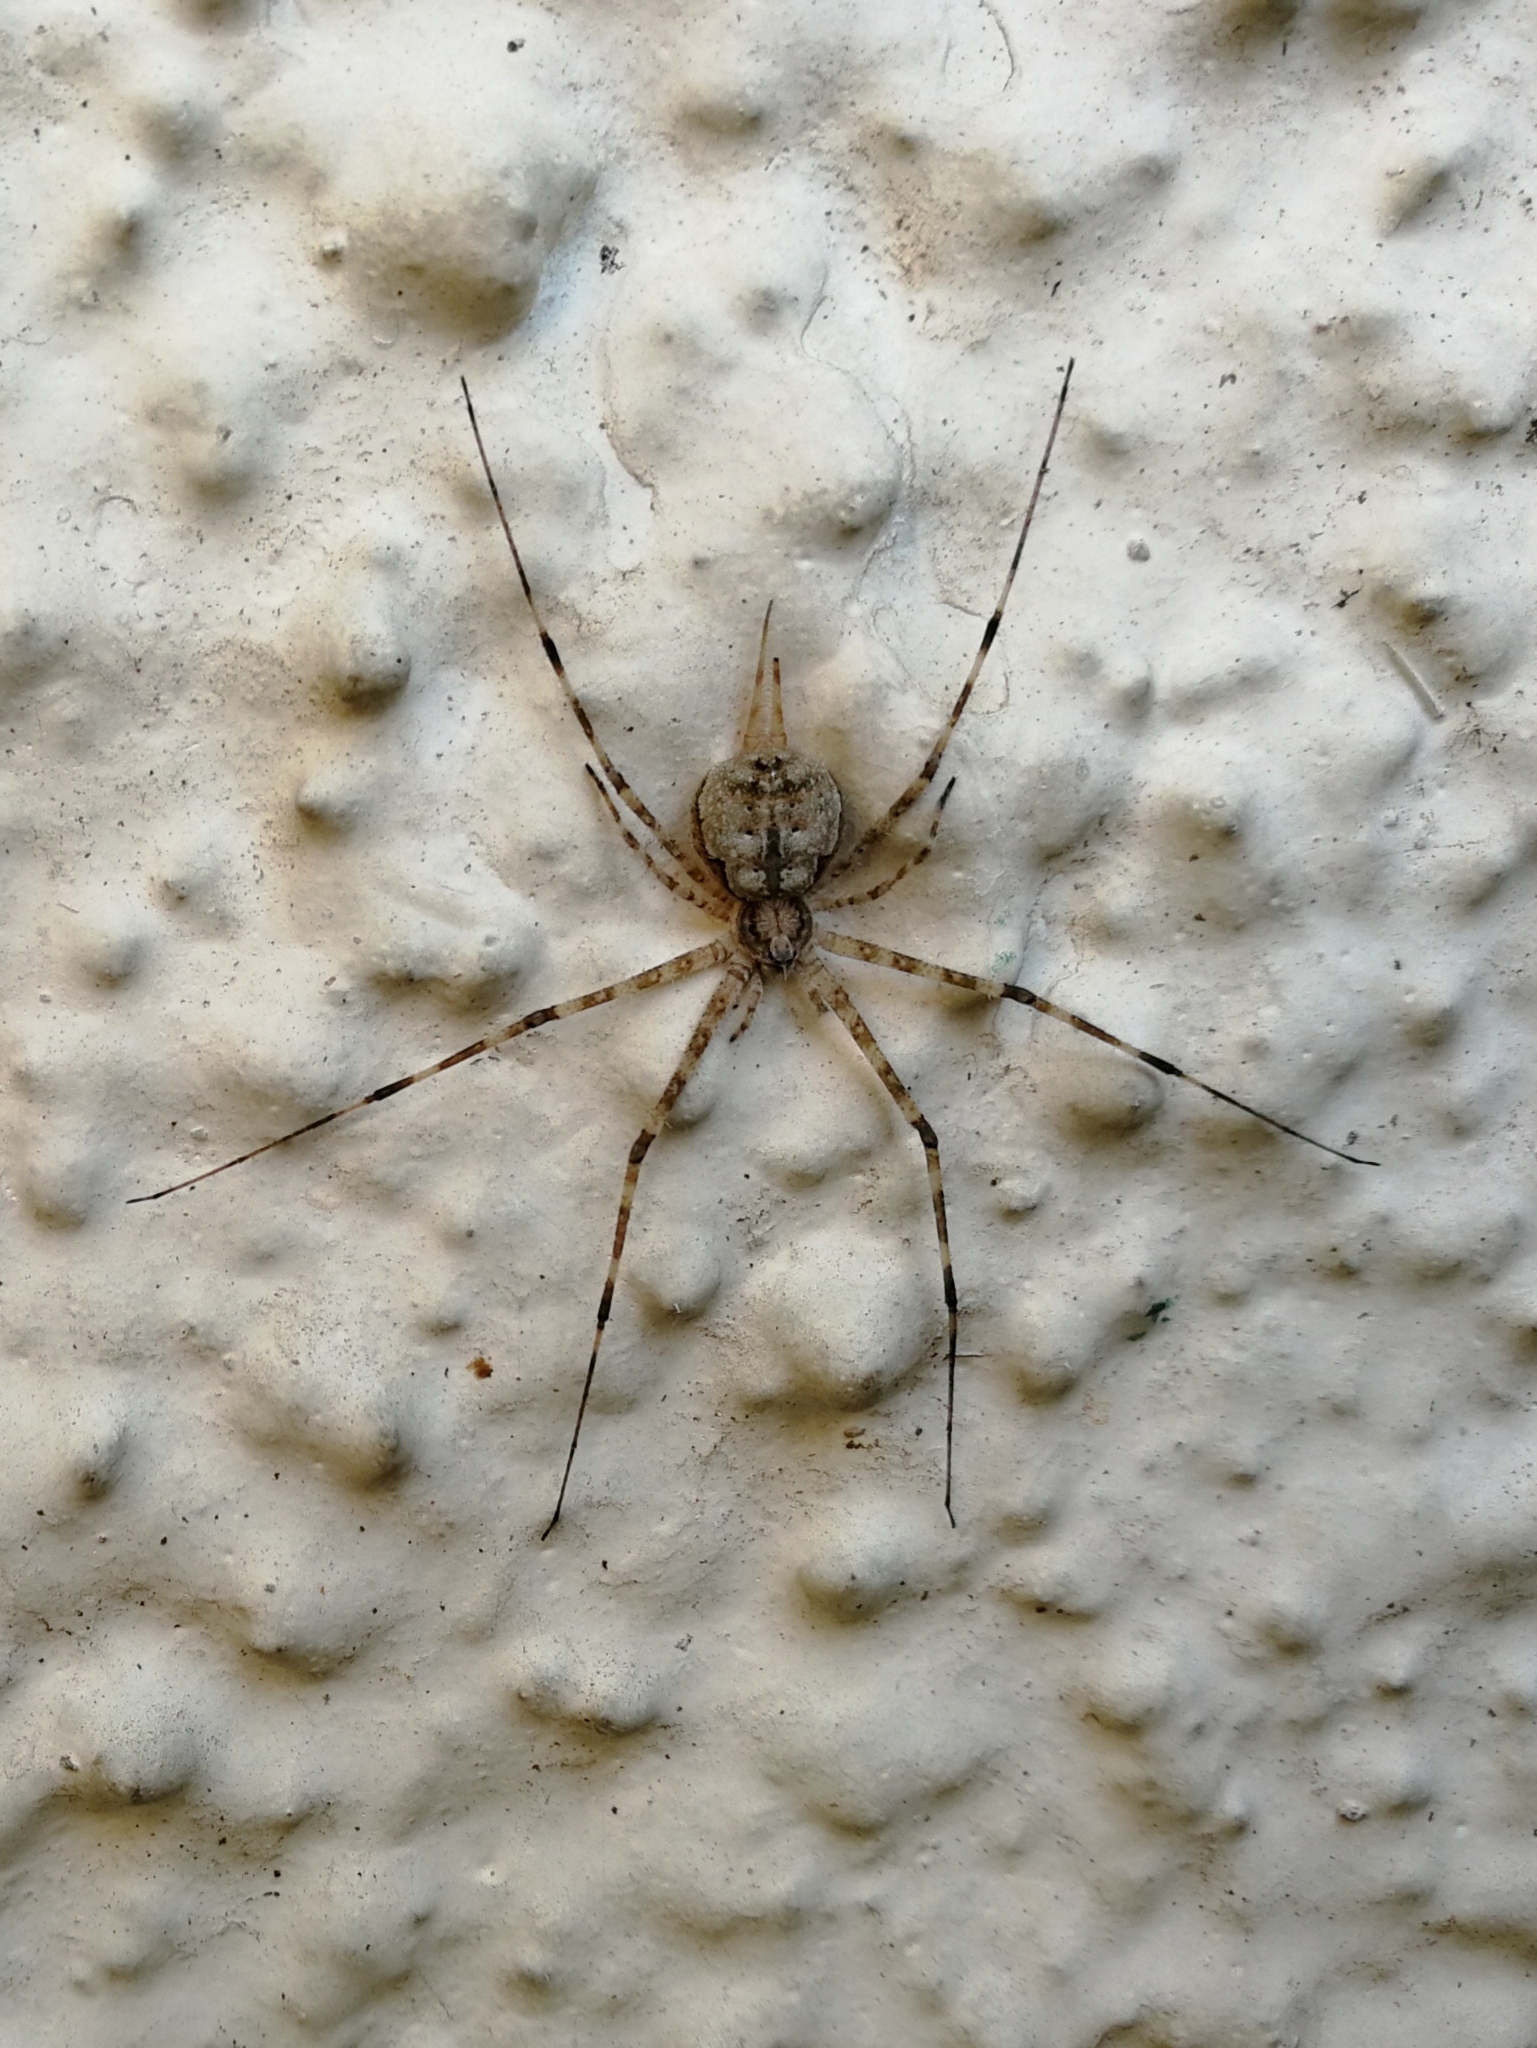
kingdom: Animalia
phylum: Arthropoda
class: Arachnida
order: Araneae
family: Hersiliidae
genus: Hersilia
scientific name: Hersilia savignyi
